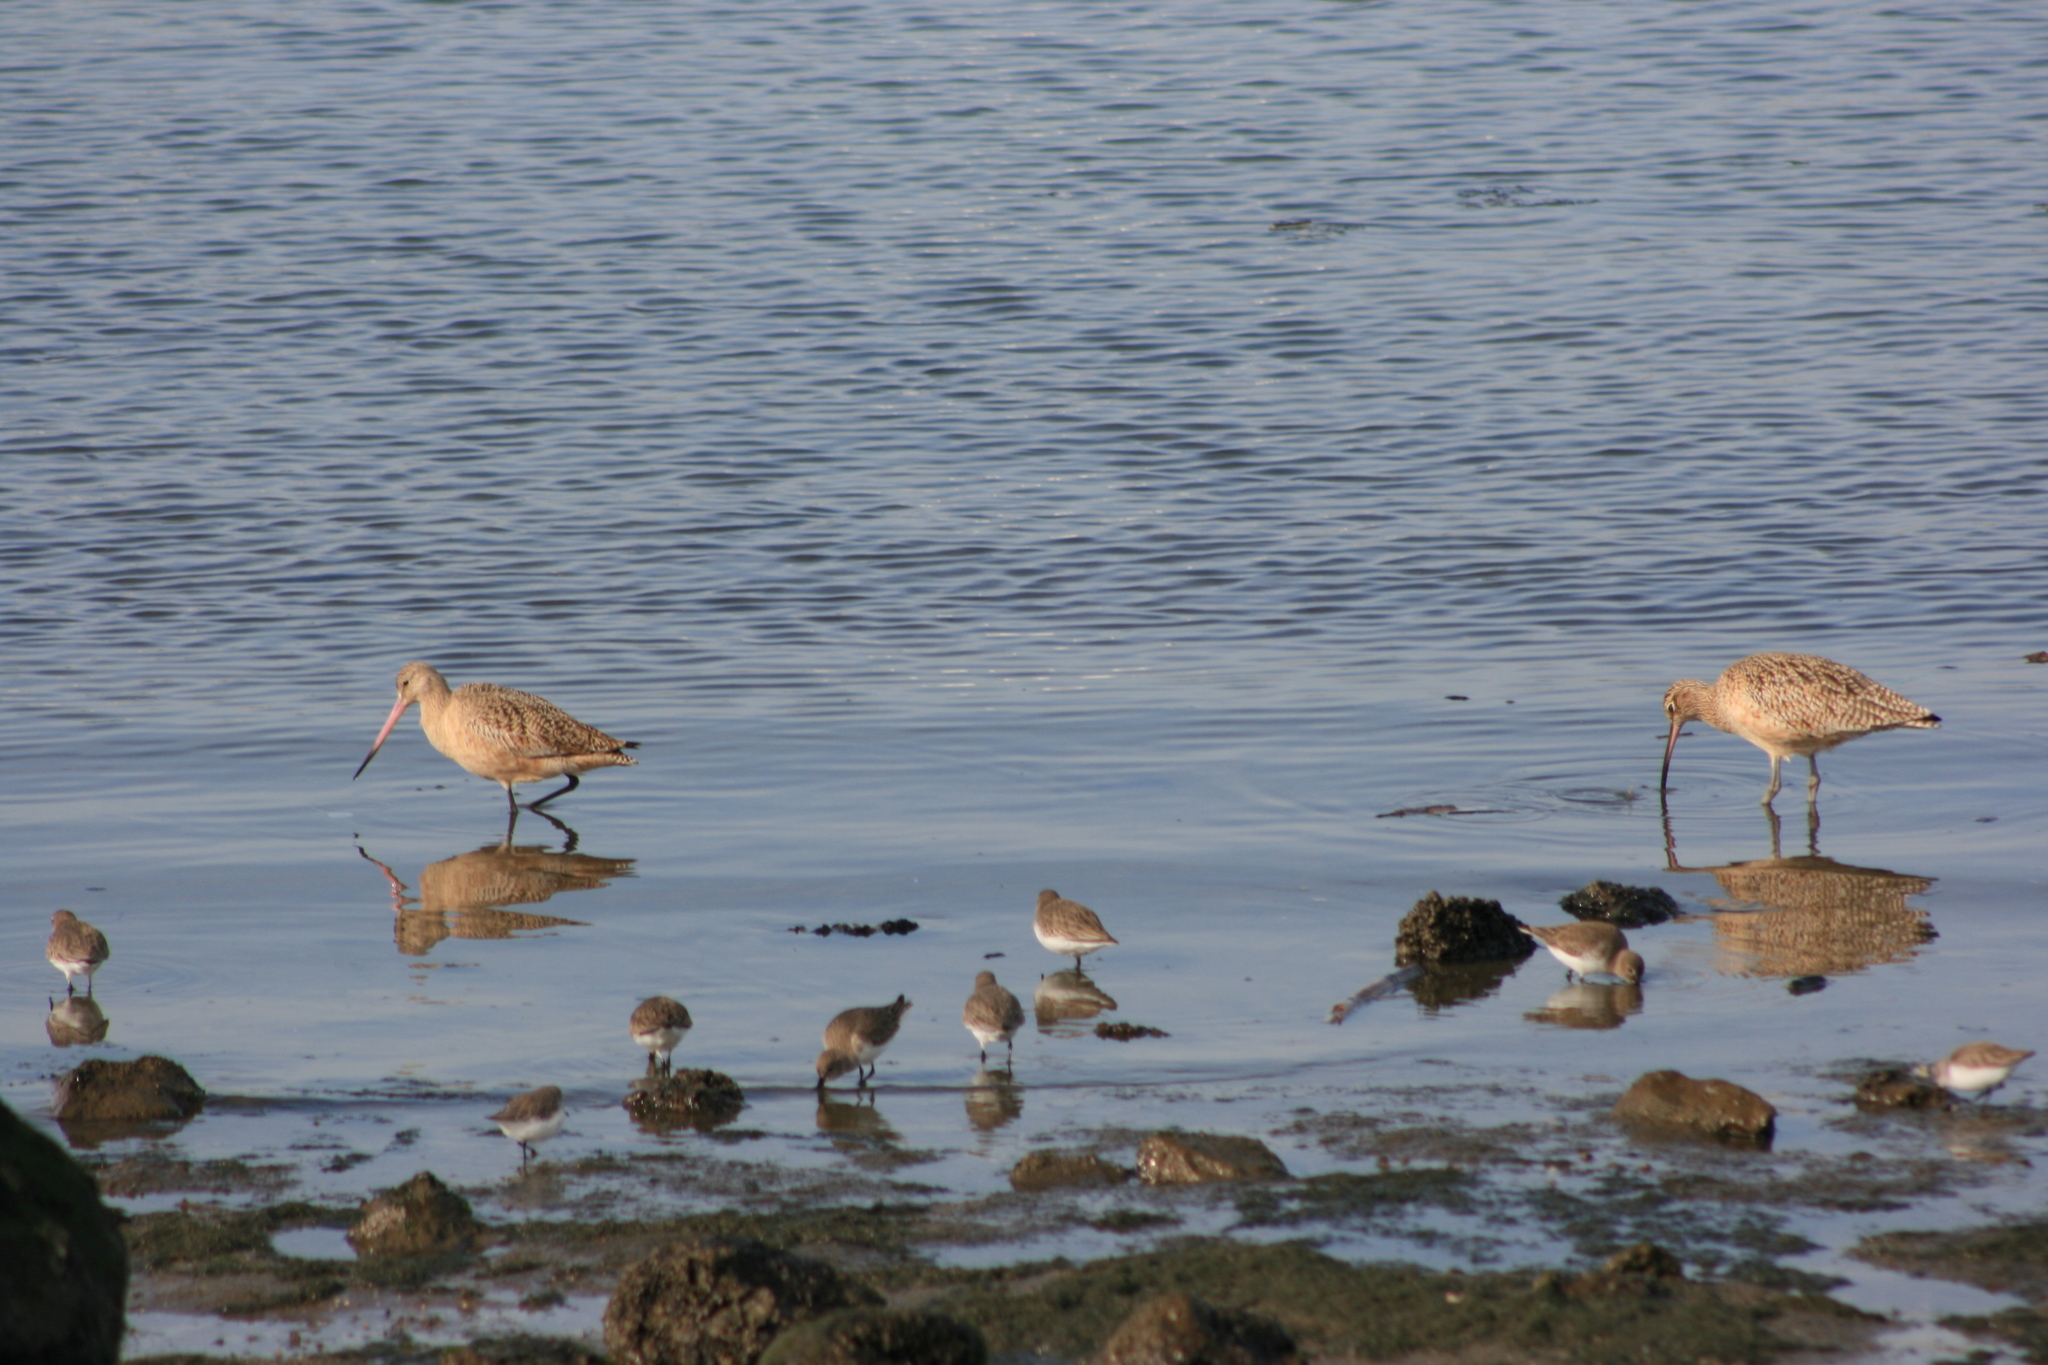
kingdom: Animalia
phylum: Chordata
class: Aves
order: Charadriiformes
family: Scolopacidae
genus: Limosa
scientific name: Limosa fedoa
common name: Marbled godwit
